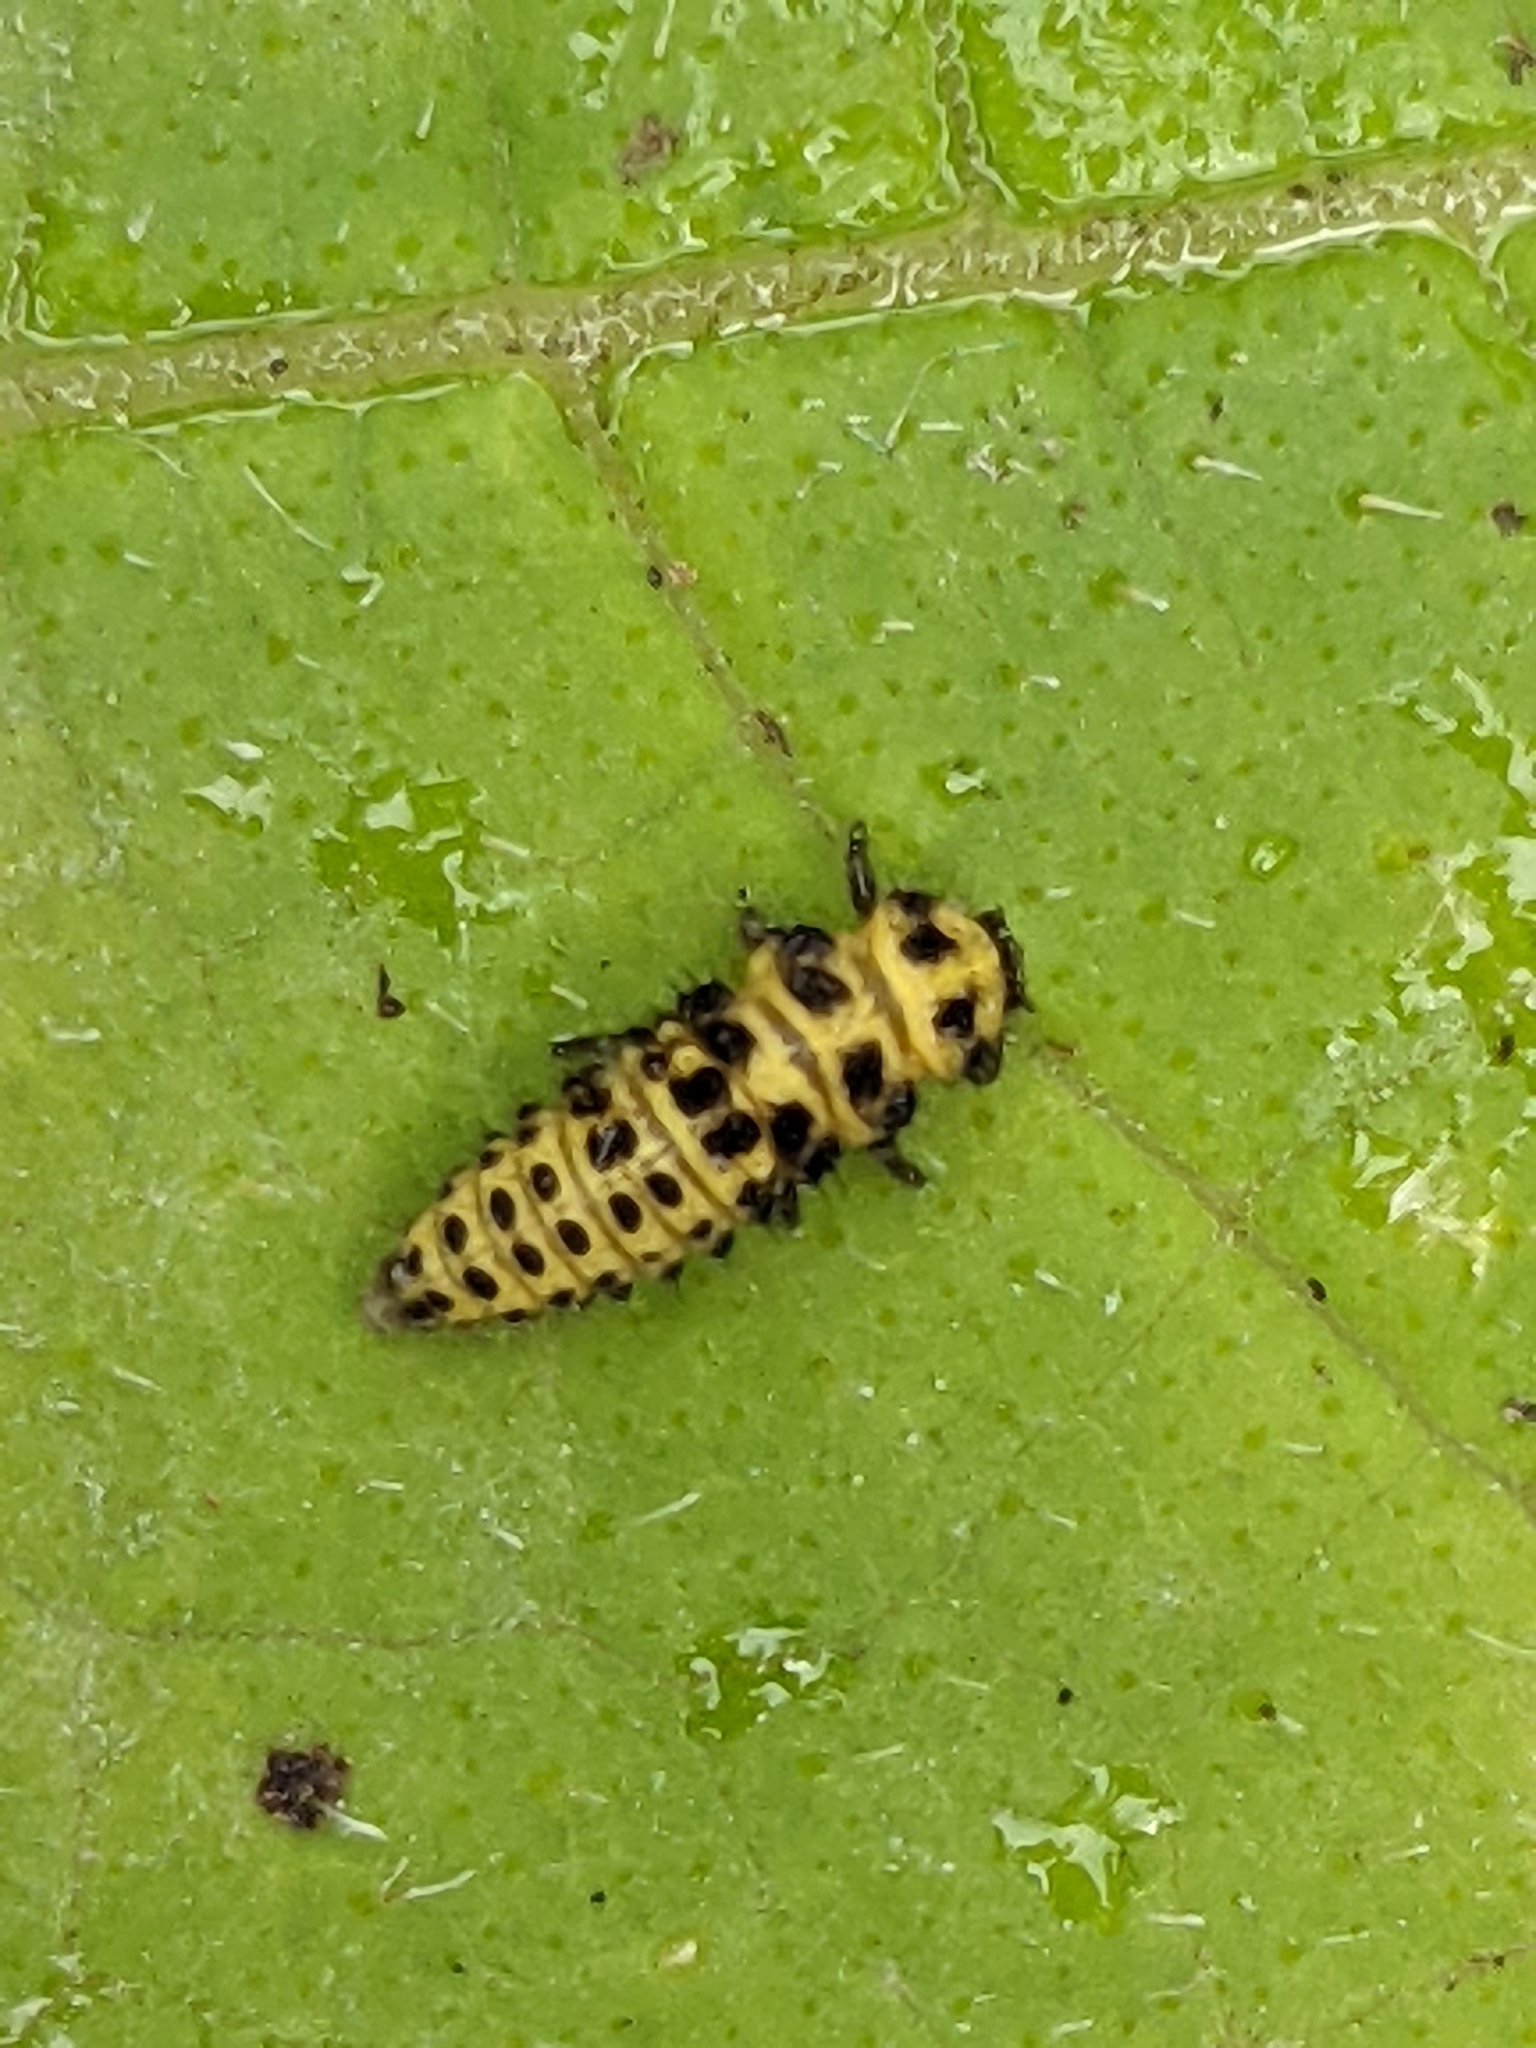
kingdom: Animalia
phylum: Arthropoda
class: Insecta
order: Coleoptera
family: Coccinellidae
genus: Psyllobora
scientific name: Psyllobora vigintiduopunctata
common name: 22-spot ladybird
